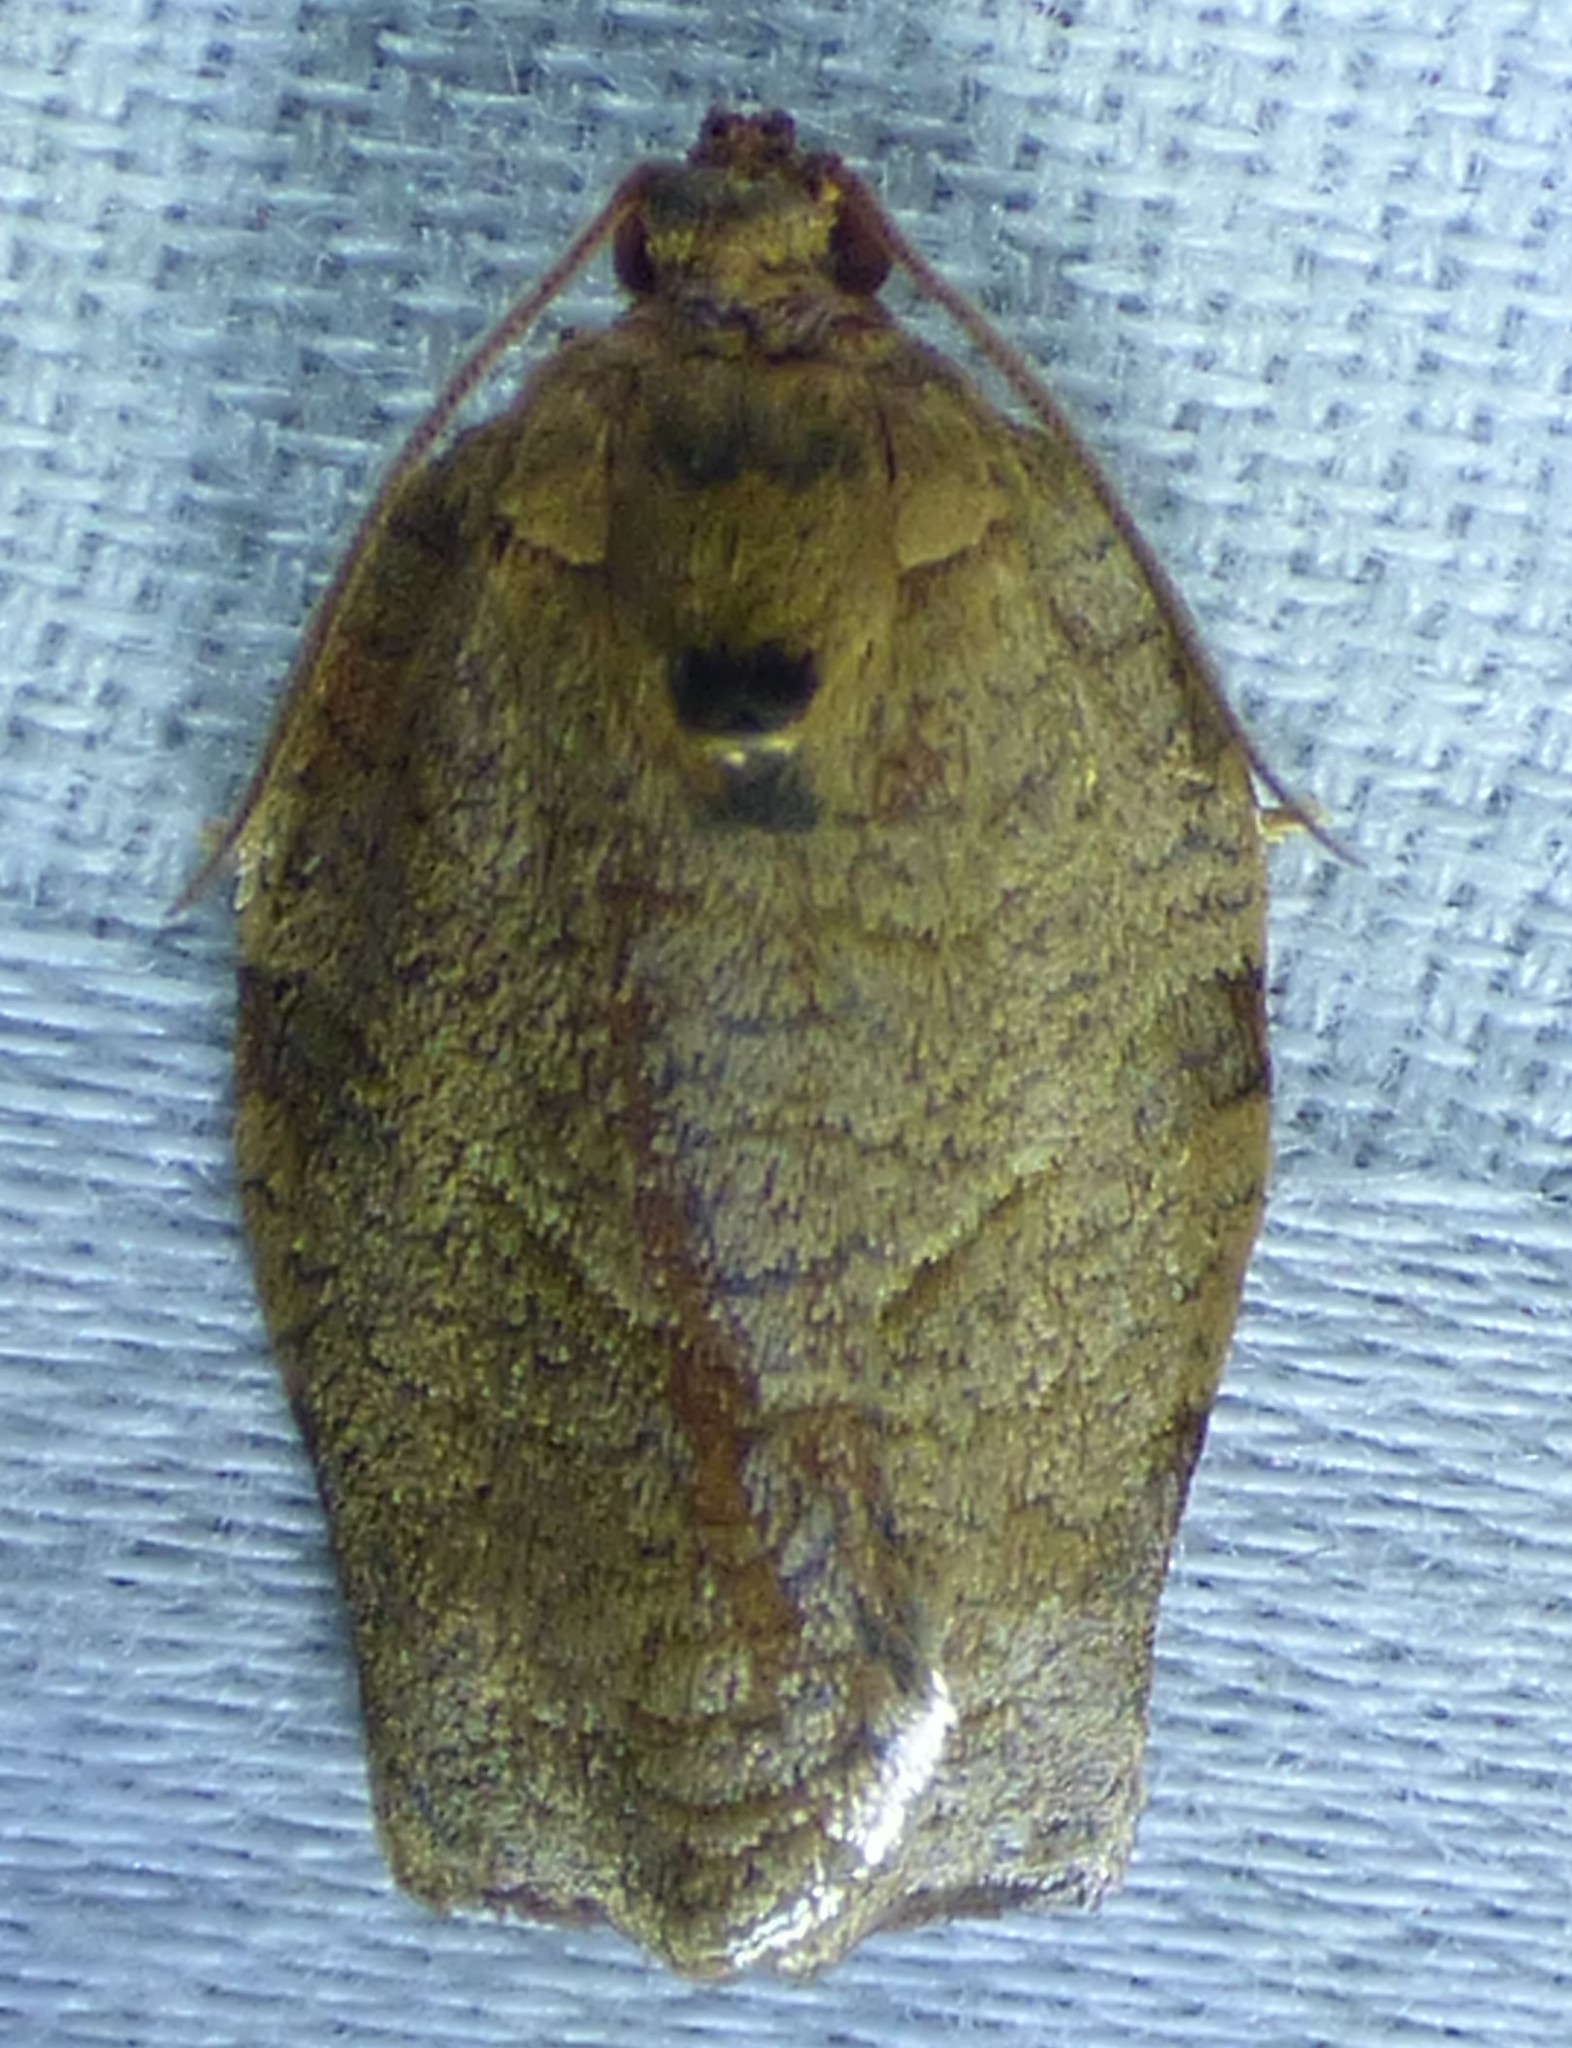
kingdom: Animalia
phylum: Arthropoda
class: Insecta
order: Lepidoptera
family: Tortricidae
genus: Choristoneura
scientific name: Choristoneura rosaceana
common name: Oblique-banded leafroller moth
